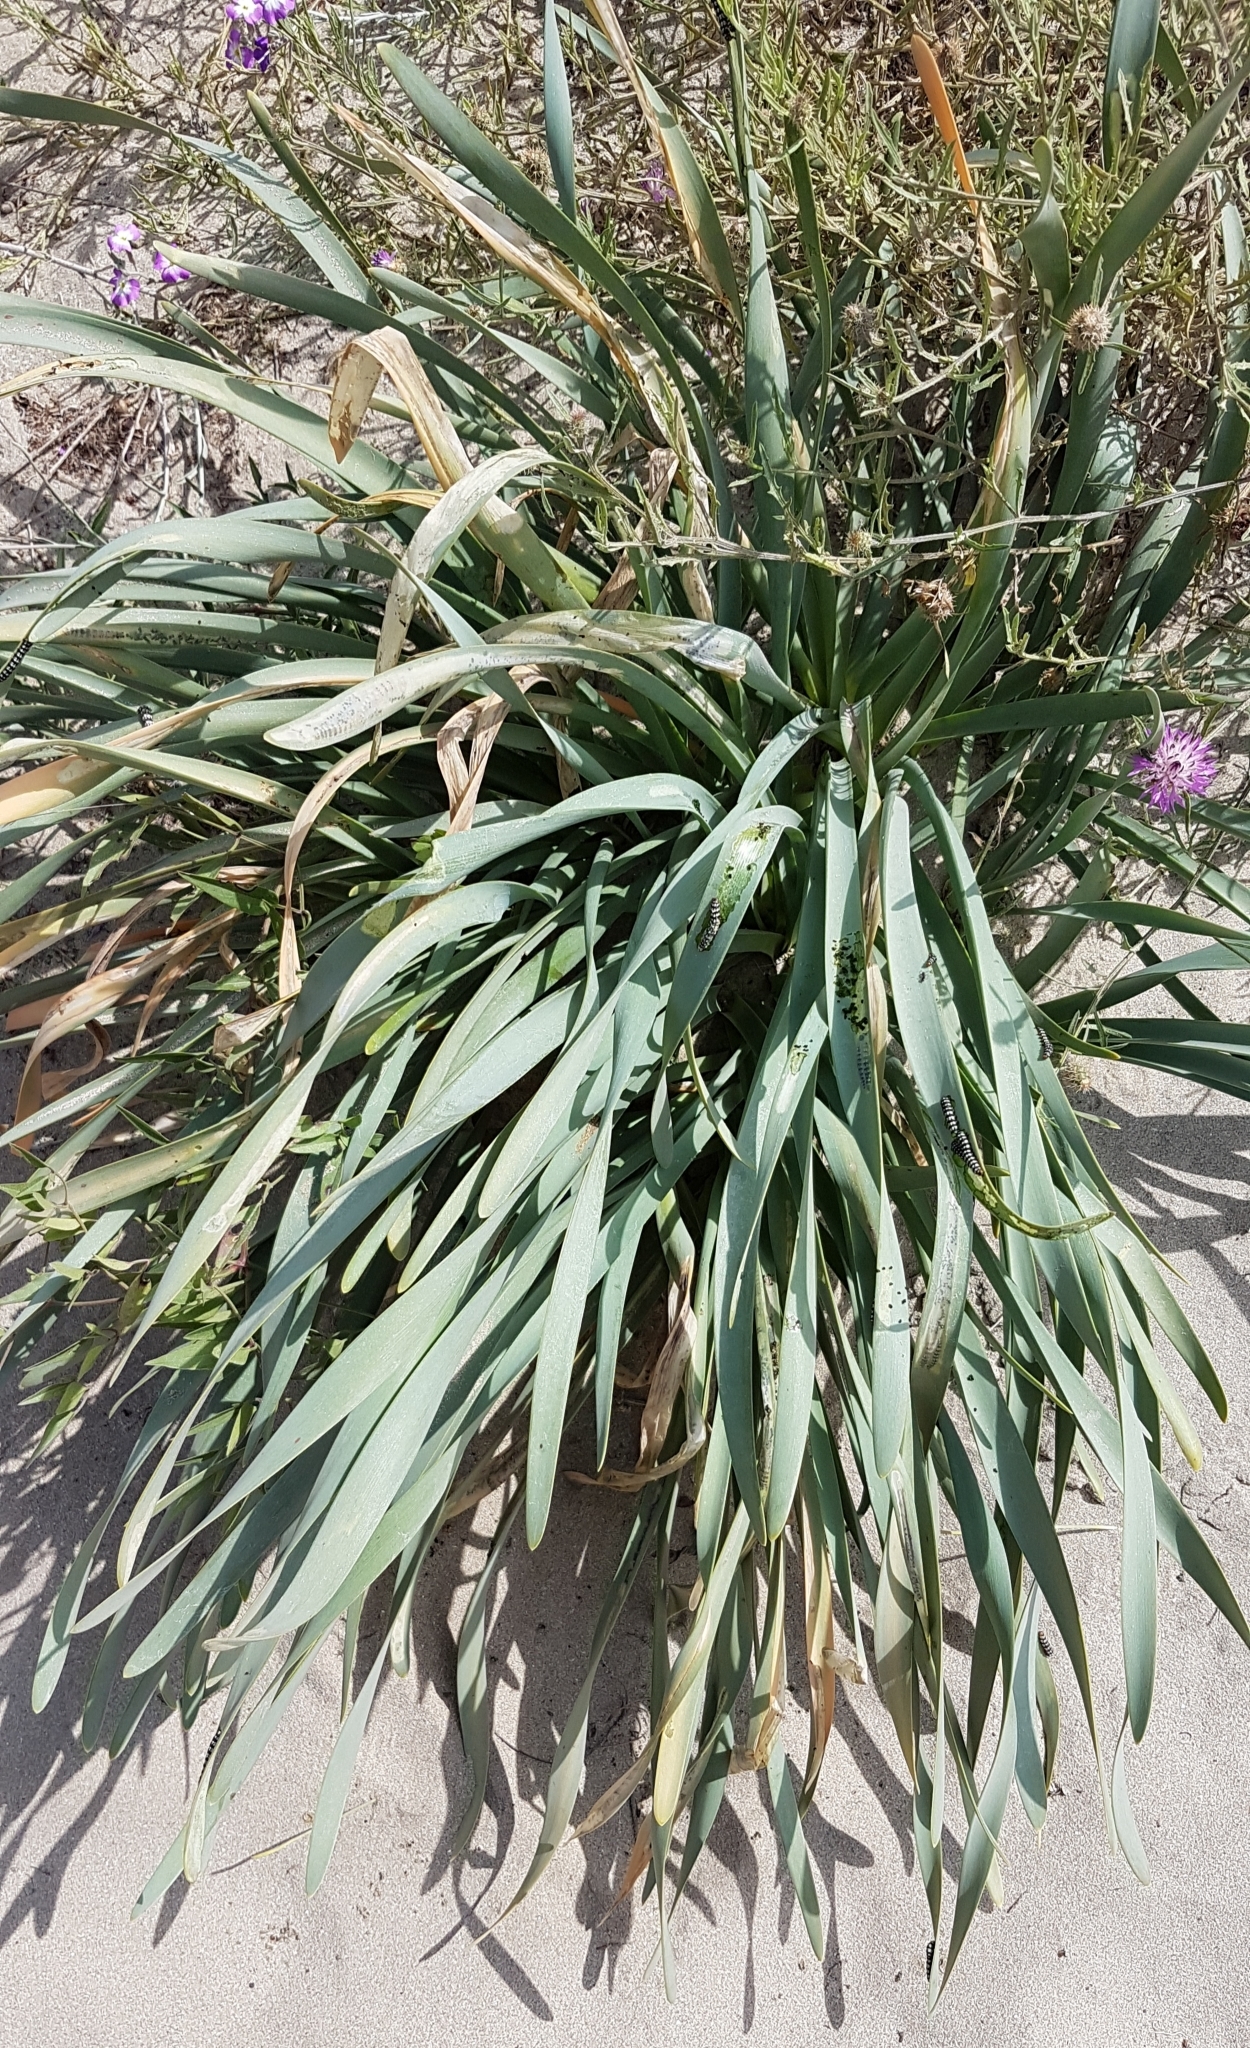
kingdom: Animalia
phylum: Arthropoda
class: Insecta
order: Lepidoptera
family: Noctuidae
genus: Brithys
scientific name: Brithys crini
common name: Kew arches
